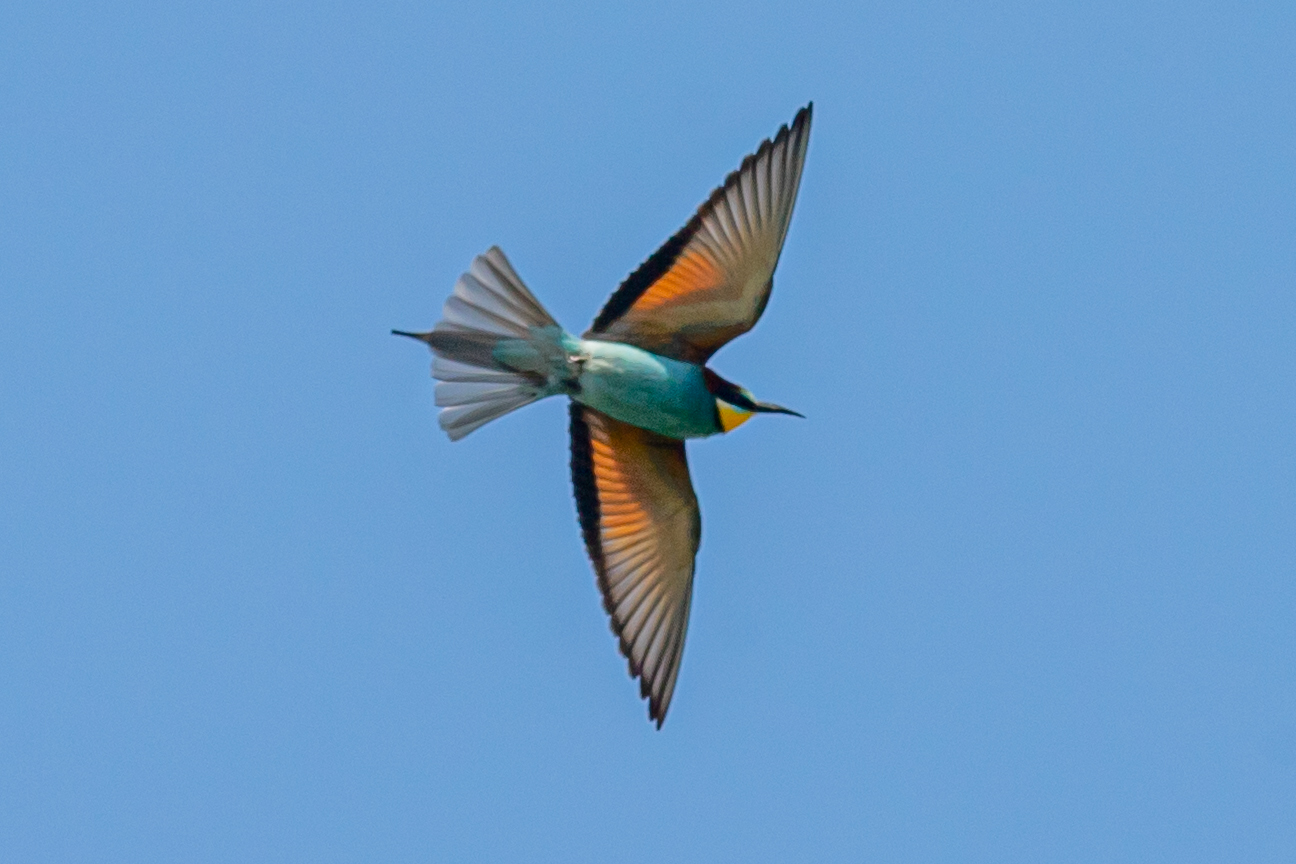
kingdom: Animalia
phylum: Chordata
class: Aves
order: Coraciiformes
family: Meropidae
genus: Merops
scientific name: Merops apiaster
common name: European bee-eater
